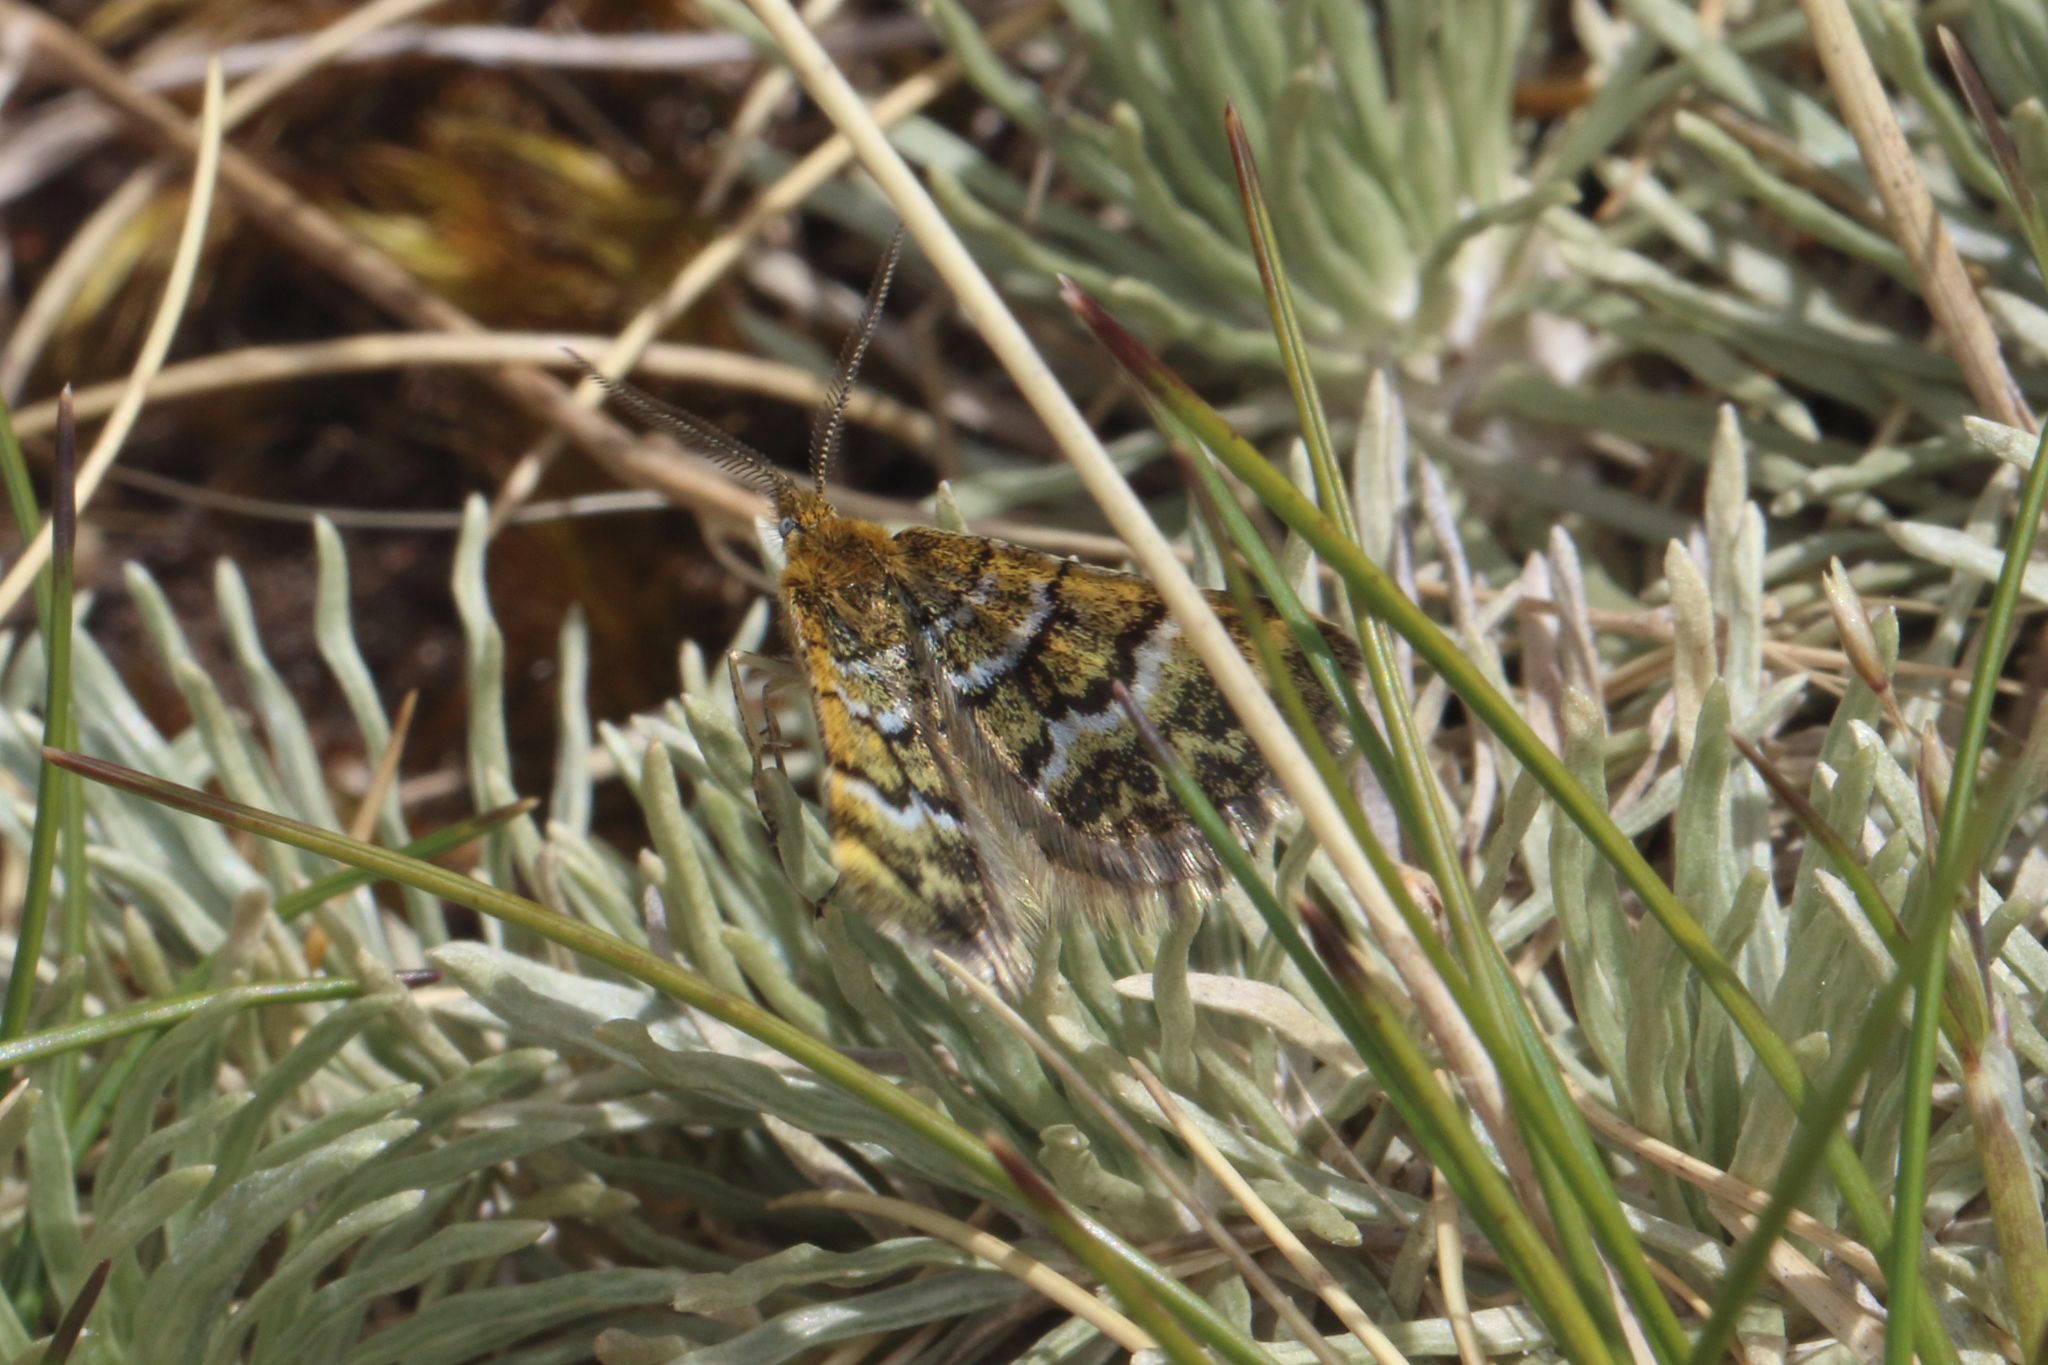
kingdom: Animalia
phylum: Arthropoda
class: Insecta
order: Lepidoptera
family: Geometridae
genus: Notoreas
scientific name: Notoreas paradelpha
